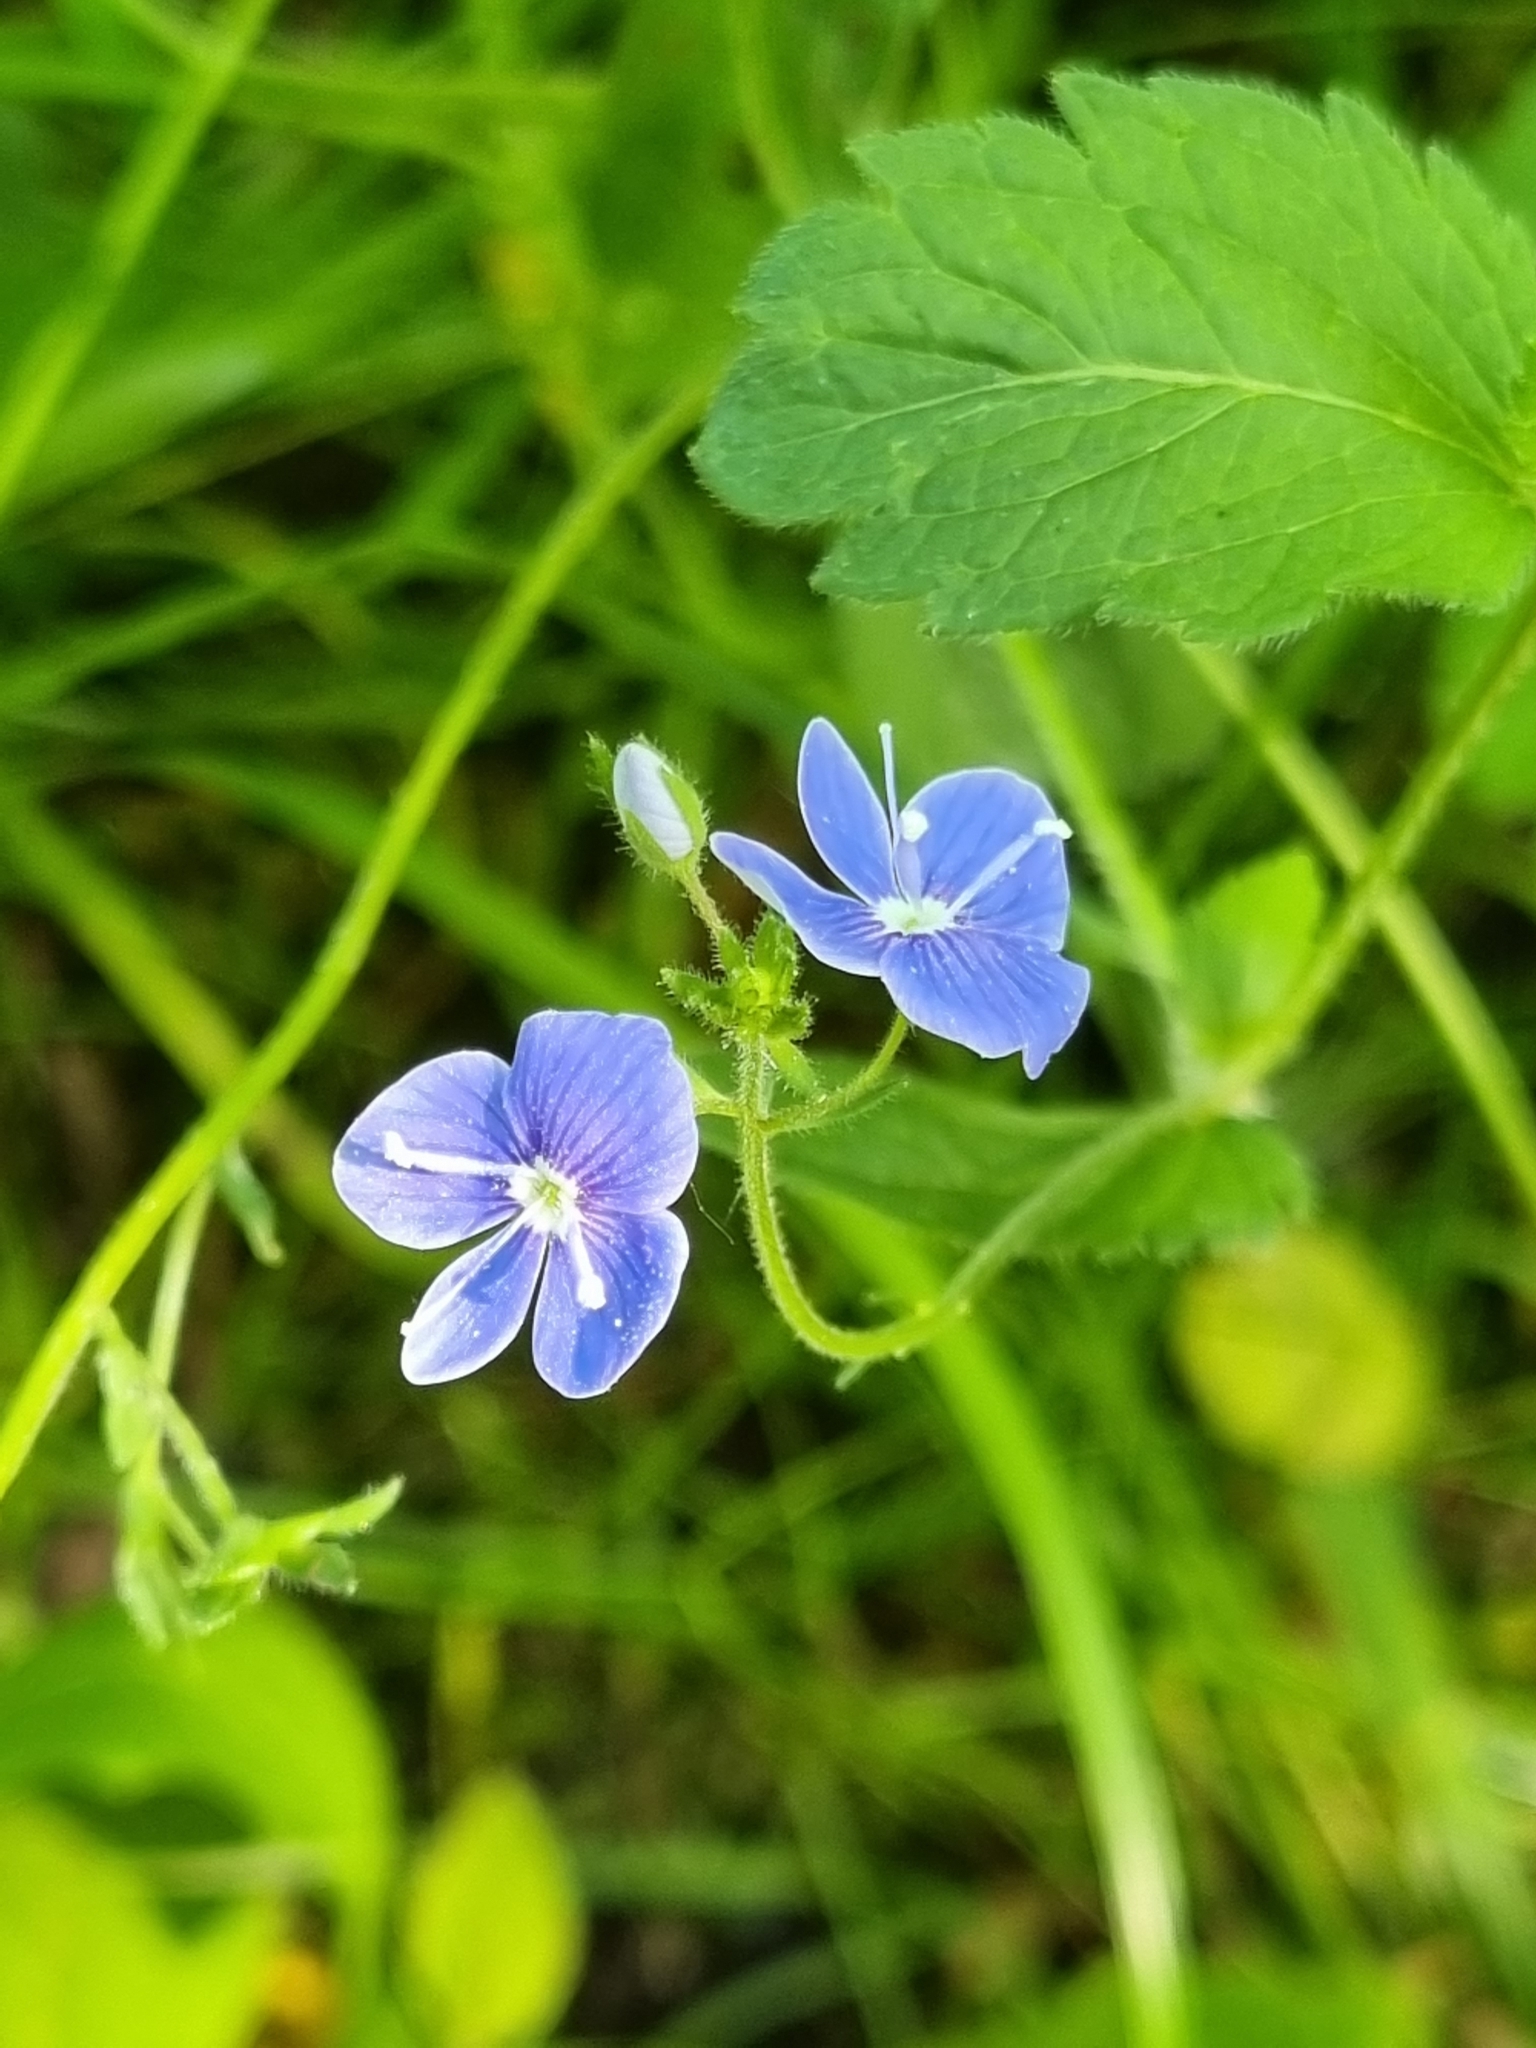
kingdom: Plantae
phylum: Tracheophyta
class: Magnoliopsida
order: Lamiales
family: Plantaginaceae
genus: Veronica
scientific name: Veronica chamaedrys
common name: Germander speedwell
